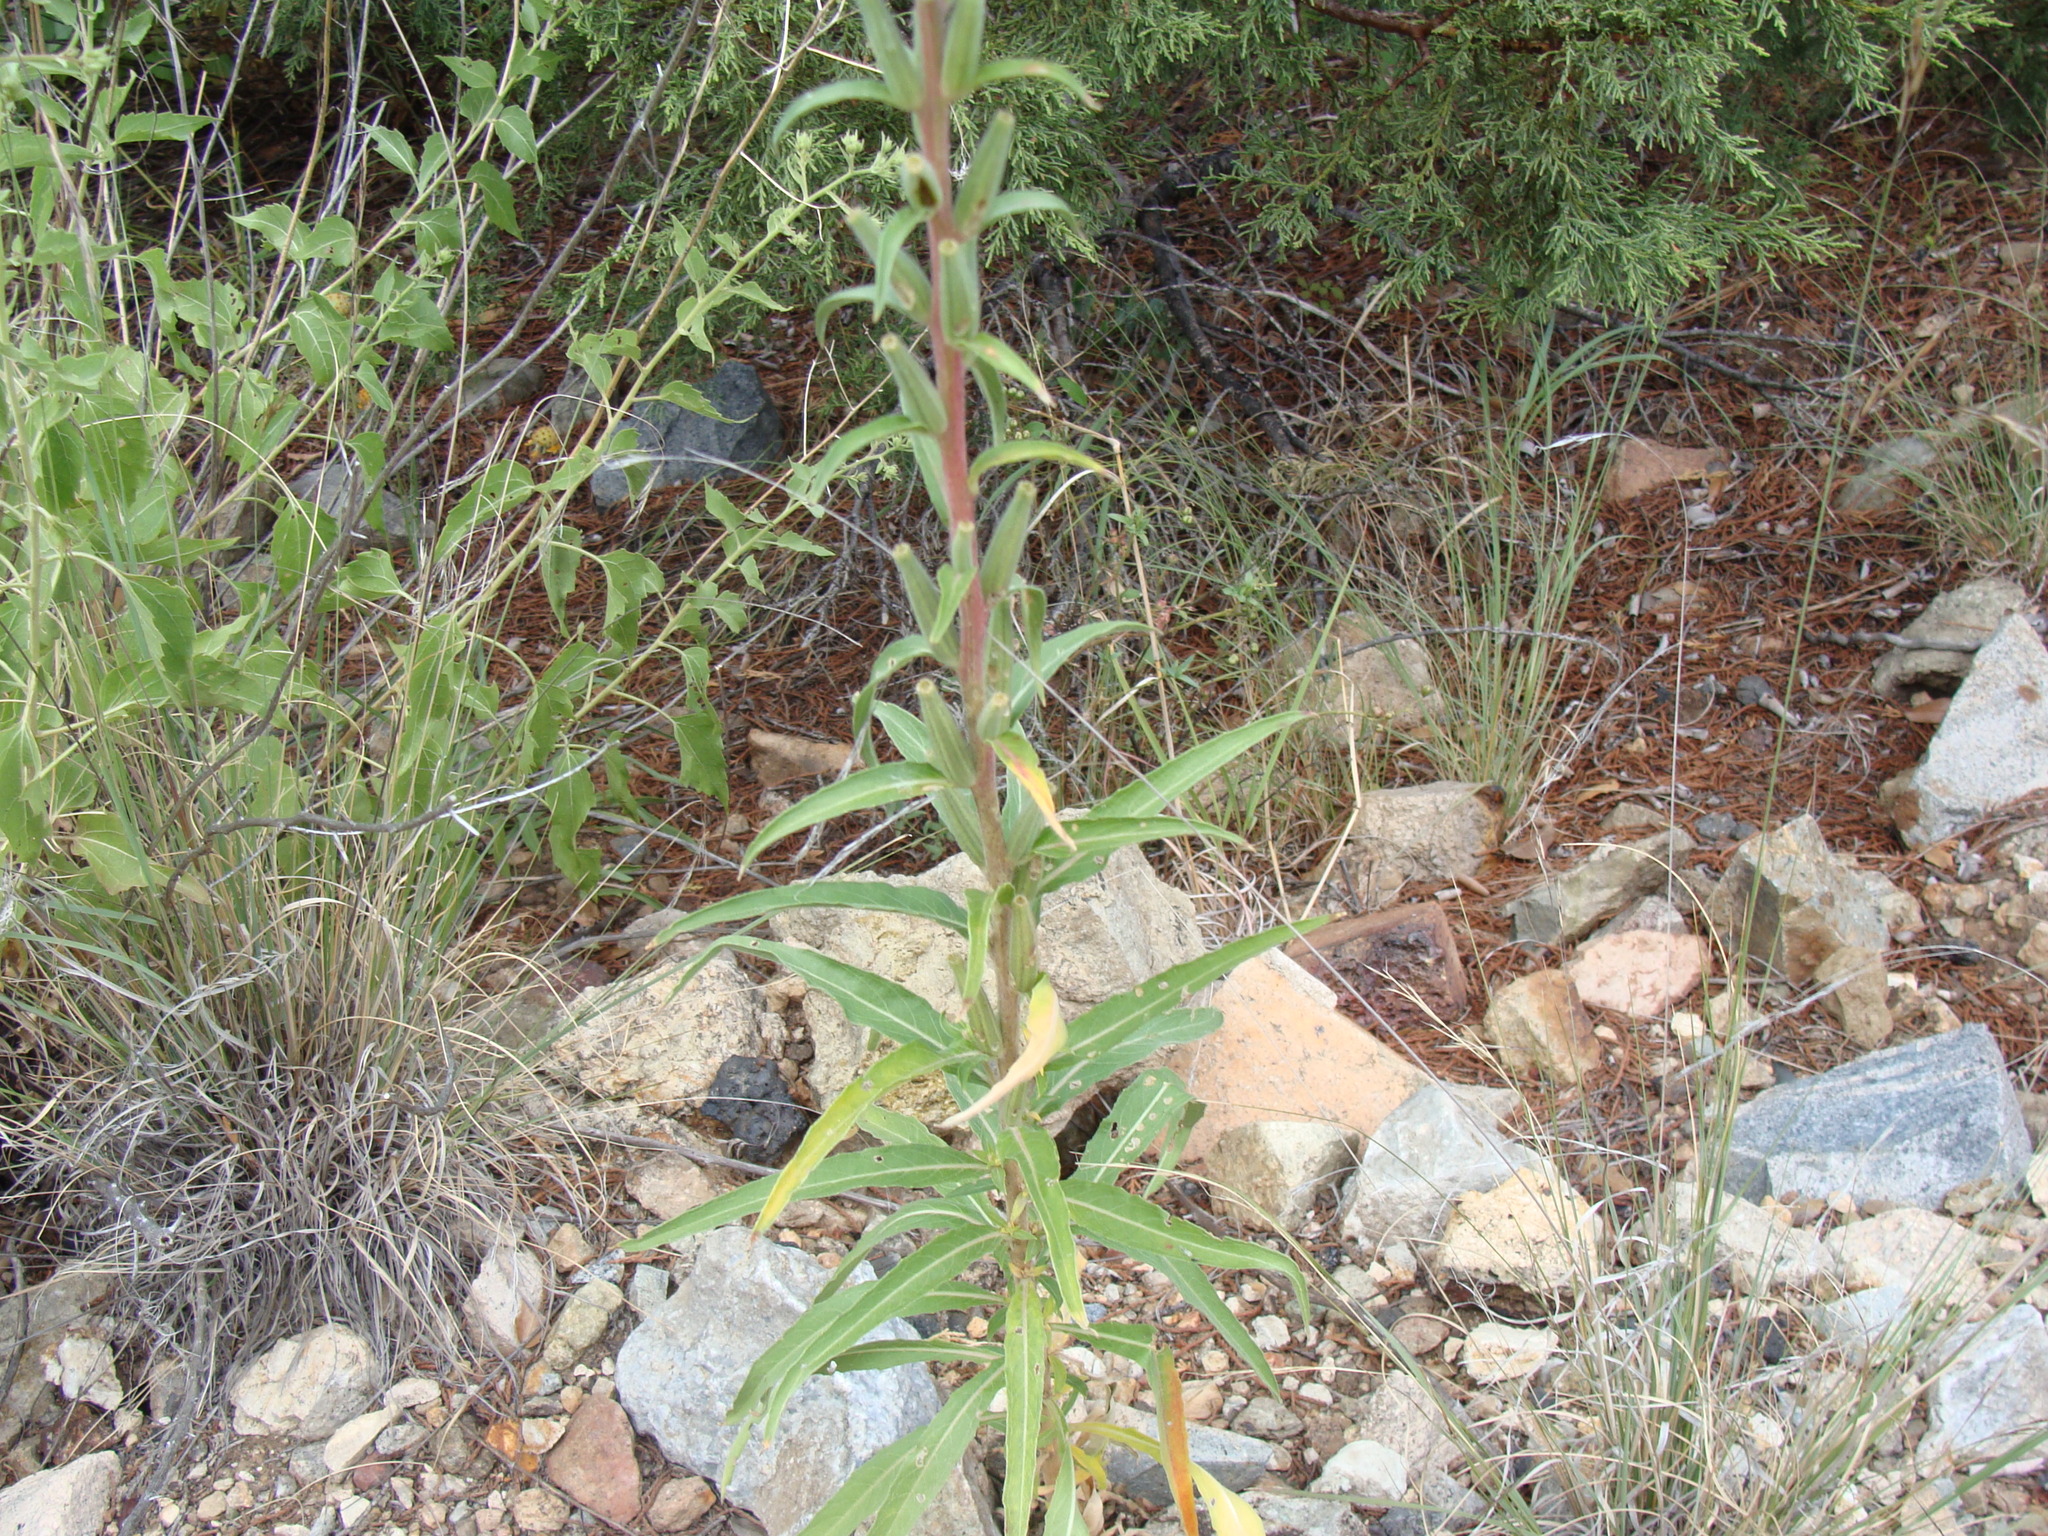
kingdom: Plantae
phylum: Tracheophyta
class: Magnoliopsida
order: Myrtales
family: Onagraceae
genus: Oenothera
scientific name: Oenothera elata
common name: Hooker's evening-primrose
